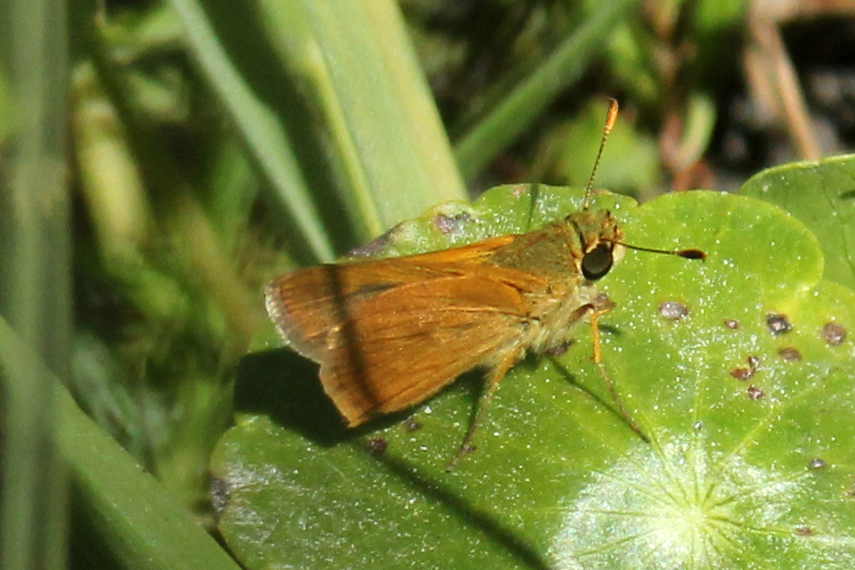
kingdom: Animalia
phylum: Arthropoda
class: Insecta
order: Lepidoptera
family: Hesperiidae
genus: Polites
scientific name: Polites otho
